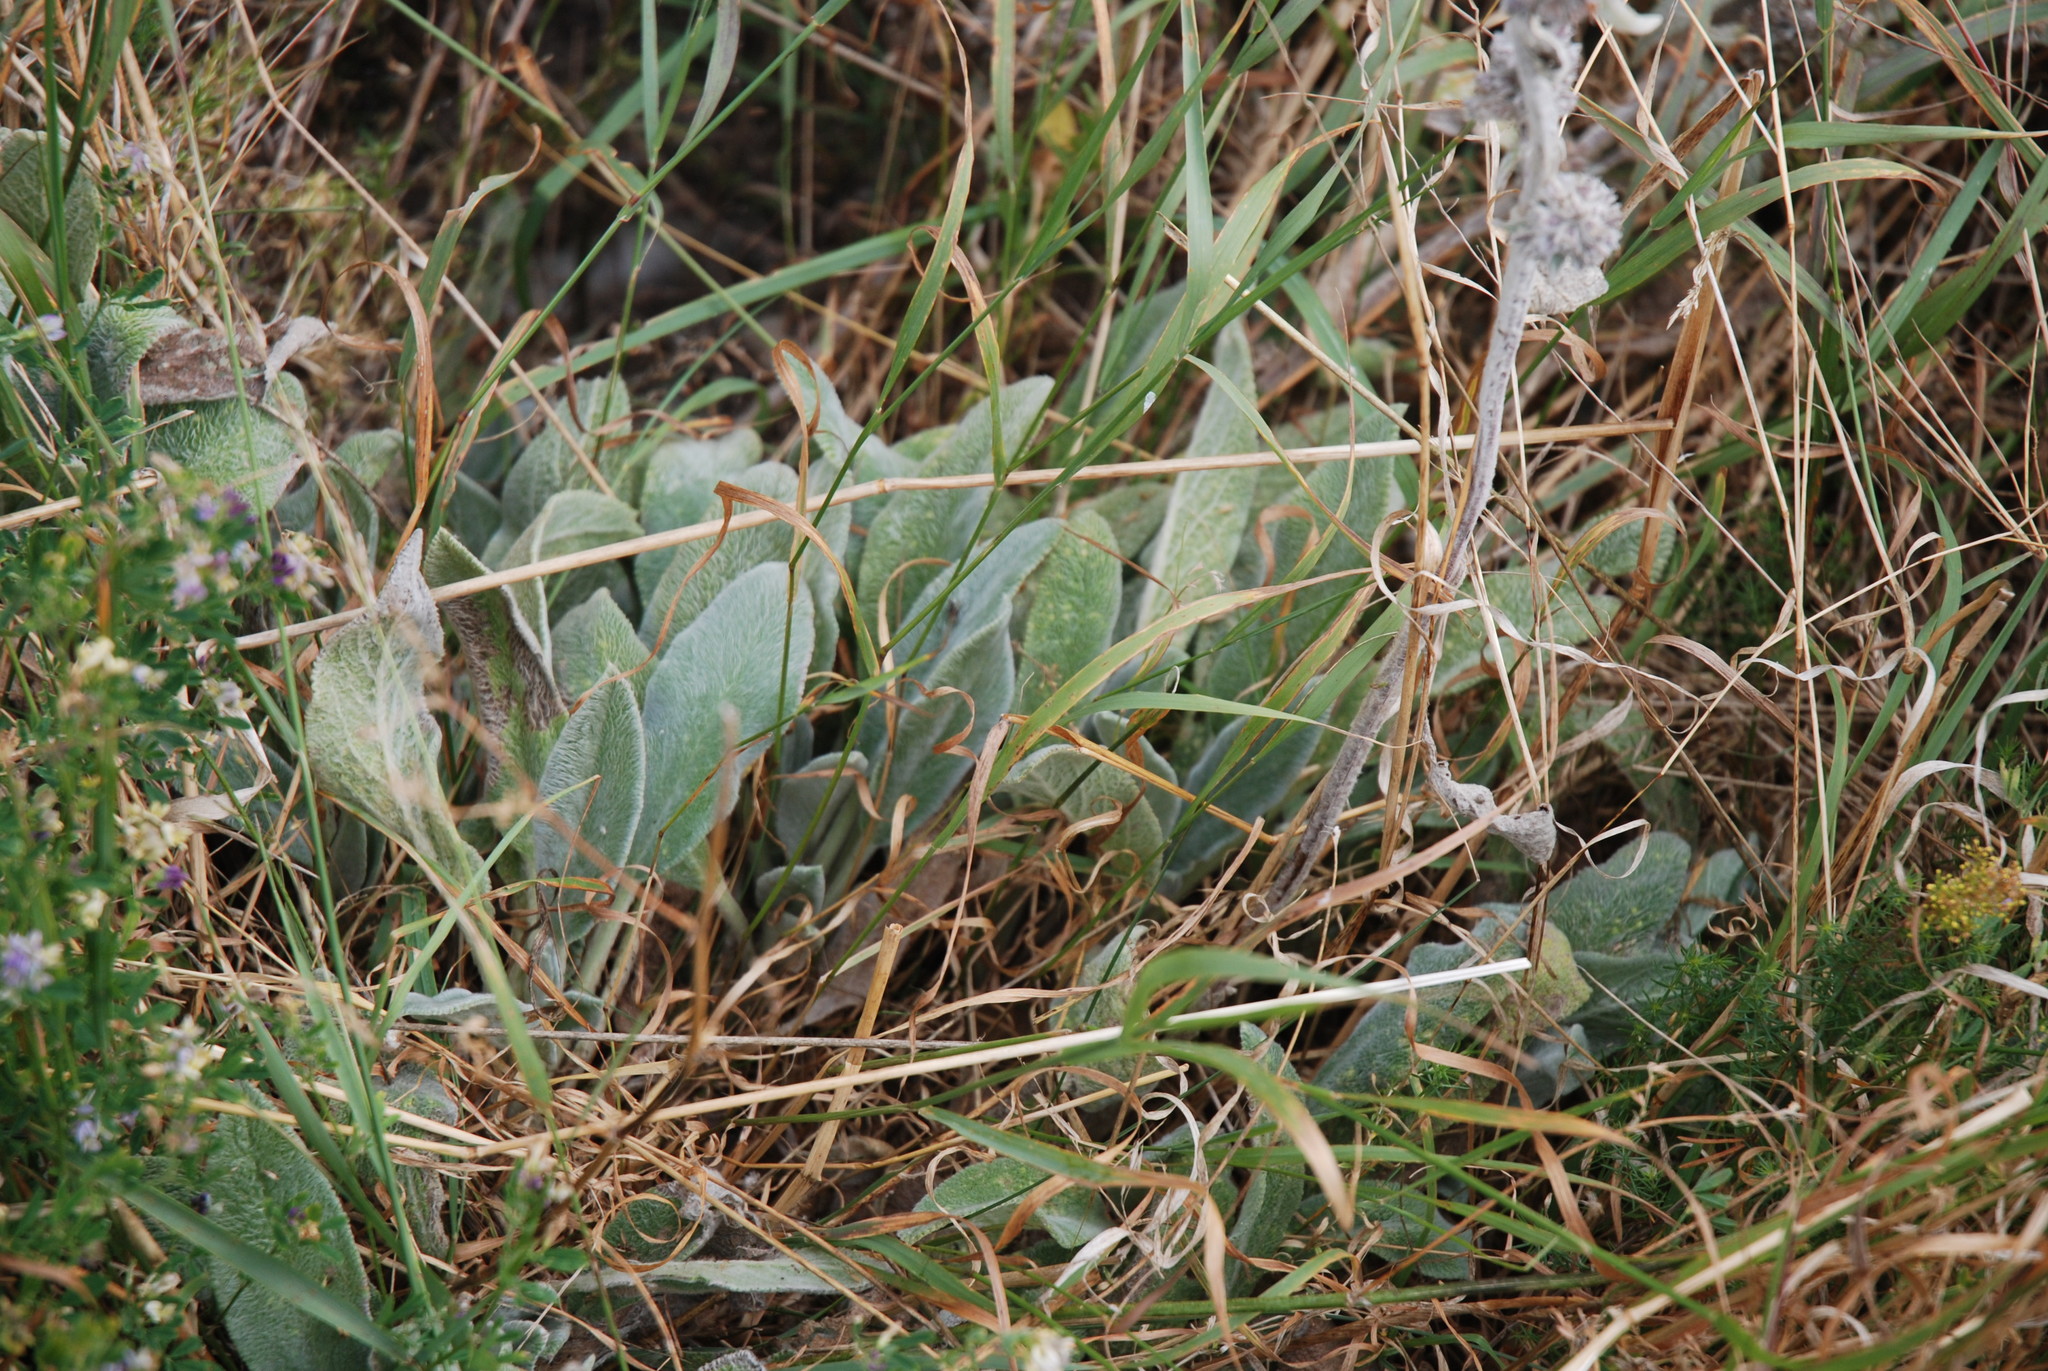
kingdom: Plantae
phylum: Tracheophyta
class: Magnoliopsida
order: Lamiales
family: Lamiaceae
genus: Stachys
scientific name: Stachys byzantina
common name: Lamb's-ear
